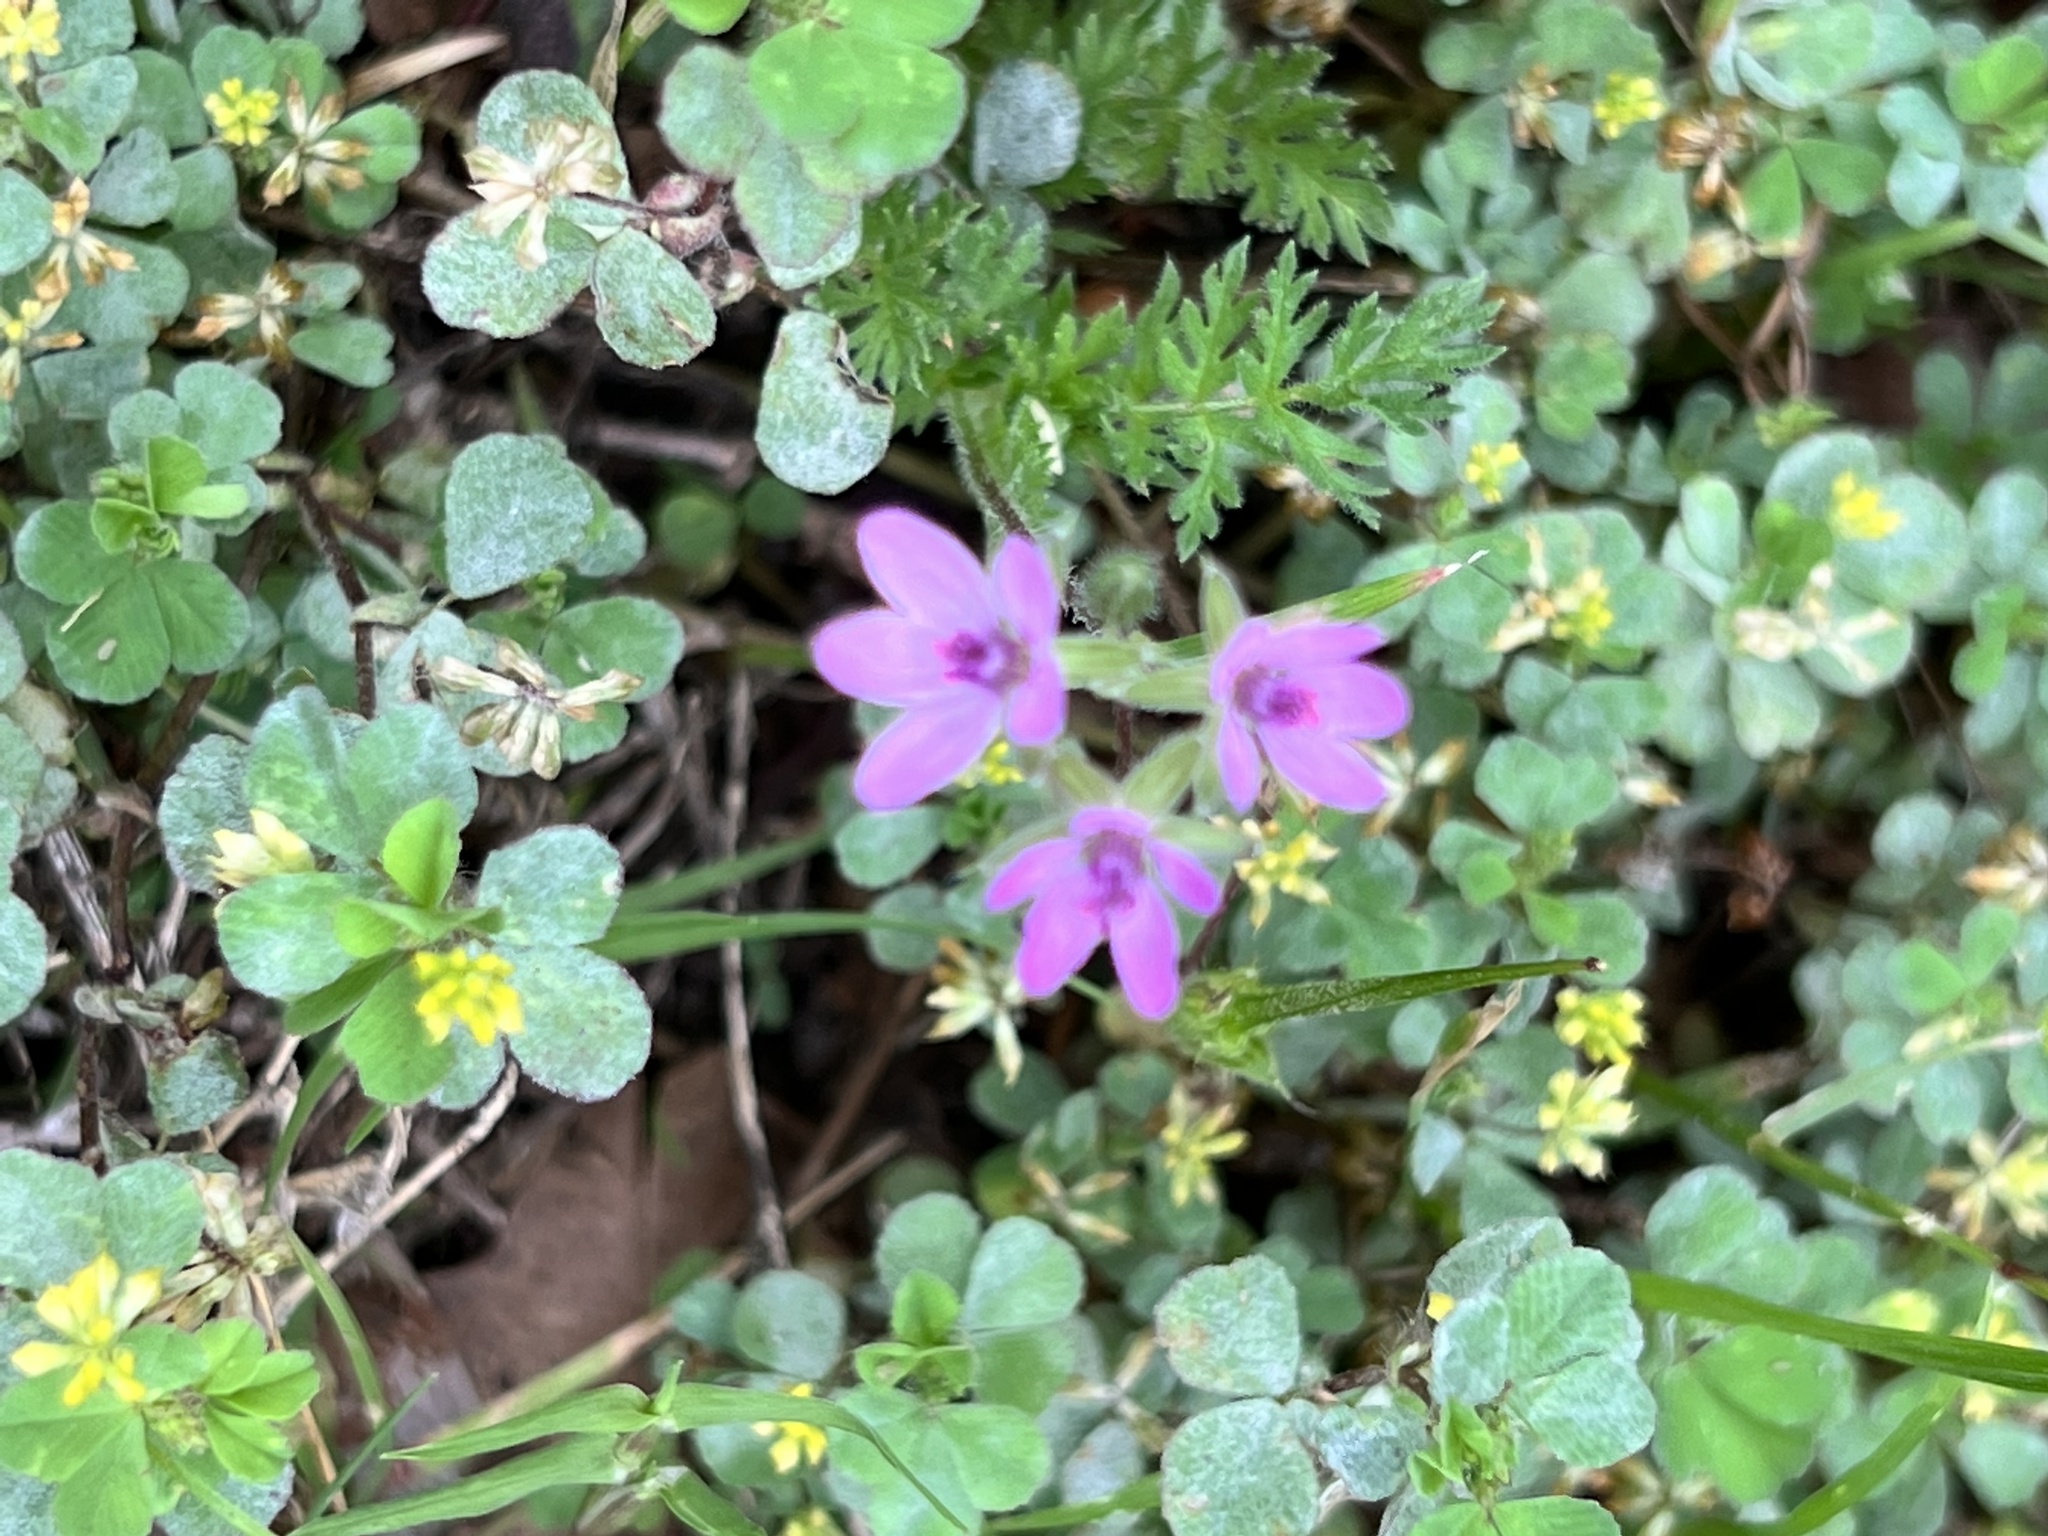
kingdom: Plantae
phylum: Tracheophyta
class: Magnoliopsida
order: Geraniales
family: Geraniaceae
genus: Erodium
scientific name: Erodium cicutarium
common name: Common stork's-bill
